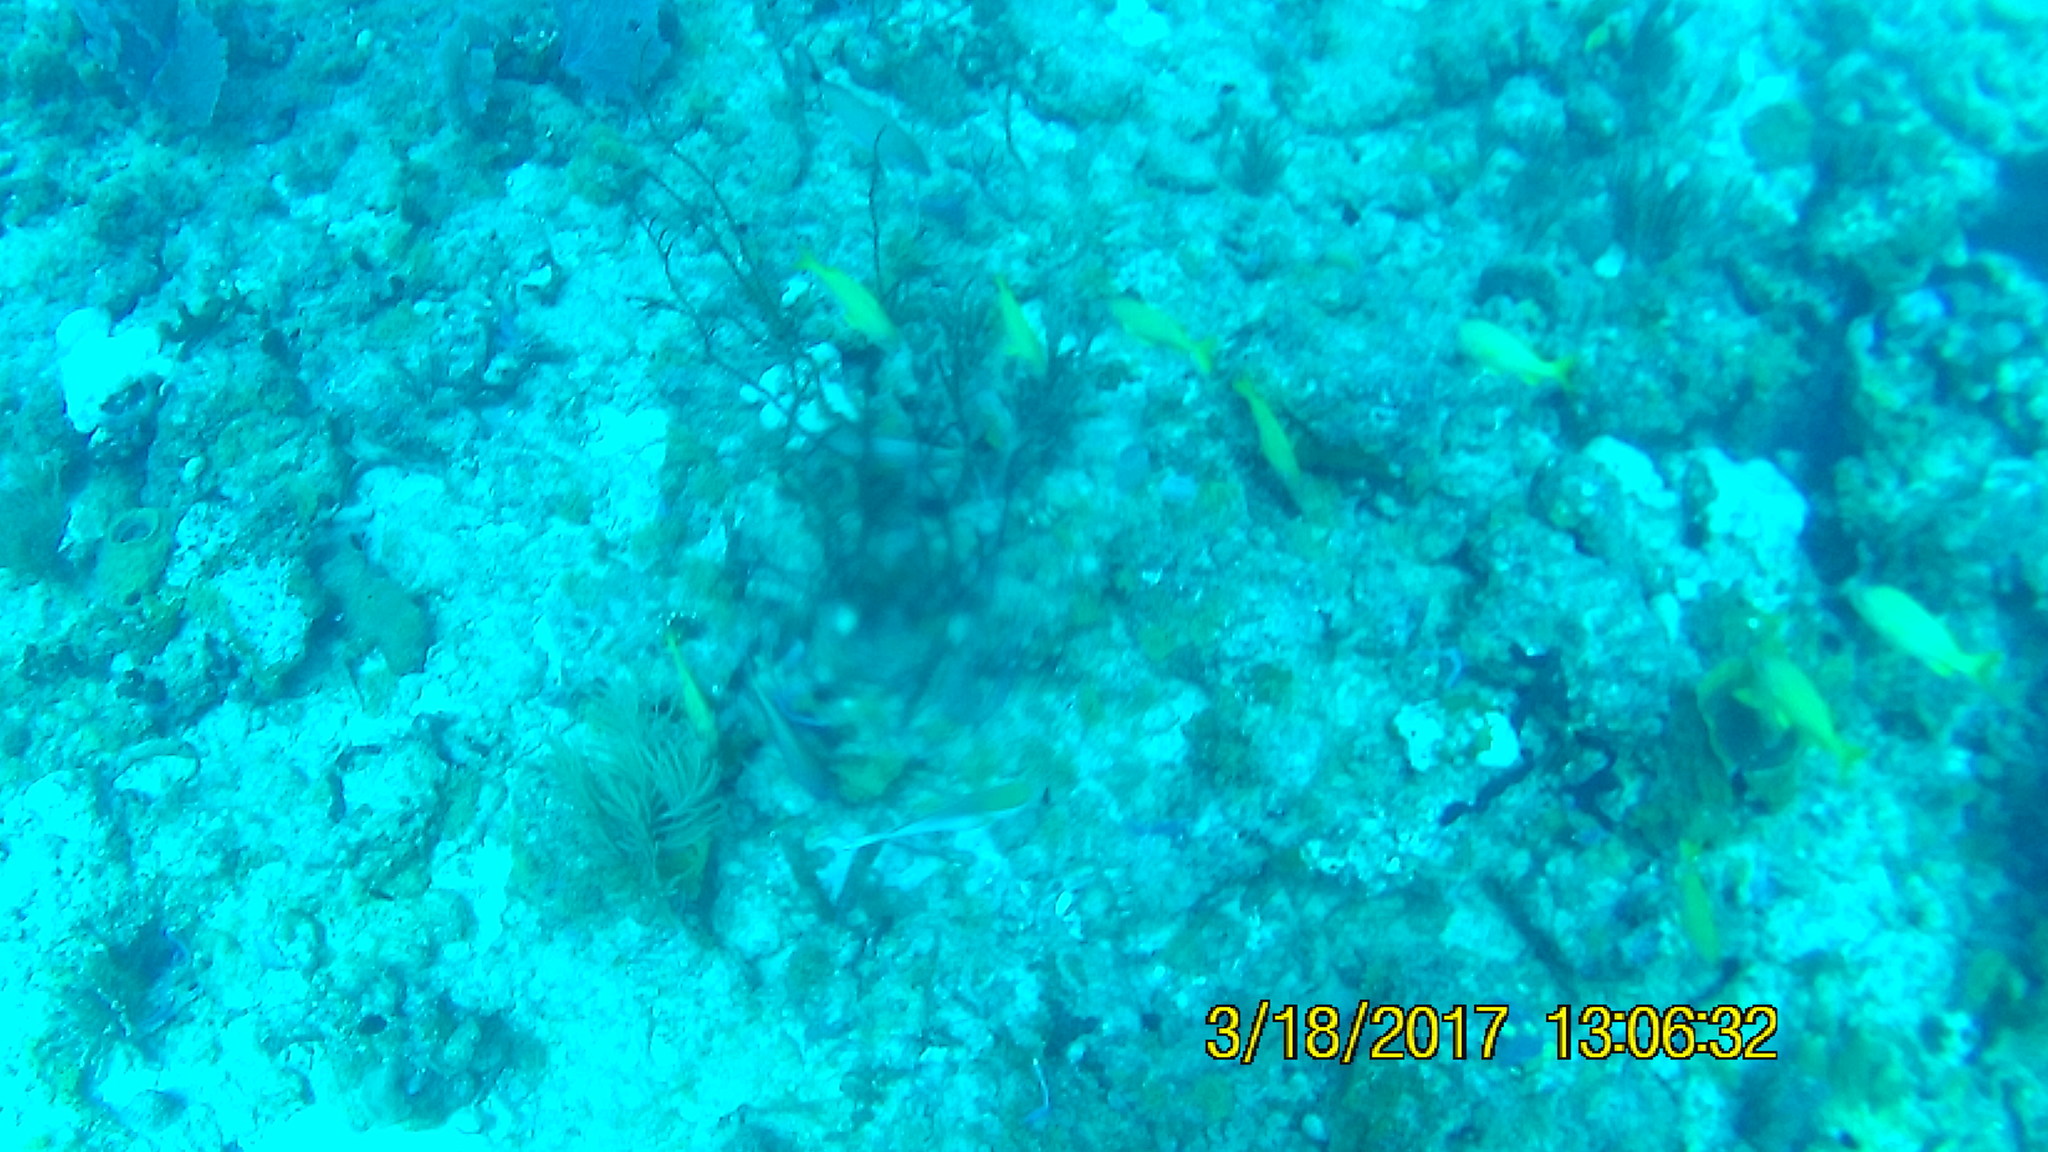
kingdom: Animalia
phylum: Chordata
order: Perciformes
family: Haemulidae
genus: Haemulon
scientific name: Haemulon flavolineatum
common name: French grunt
